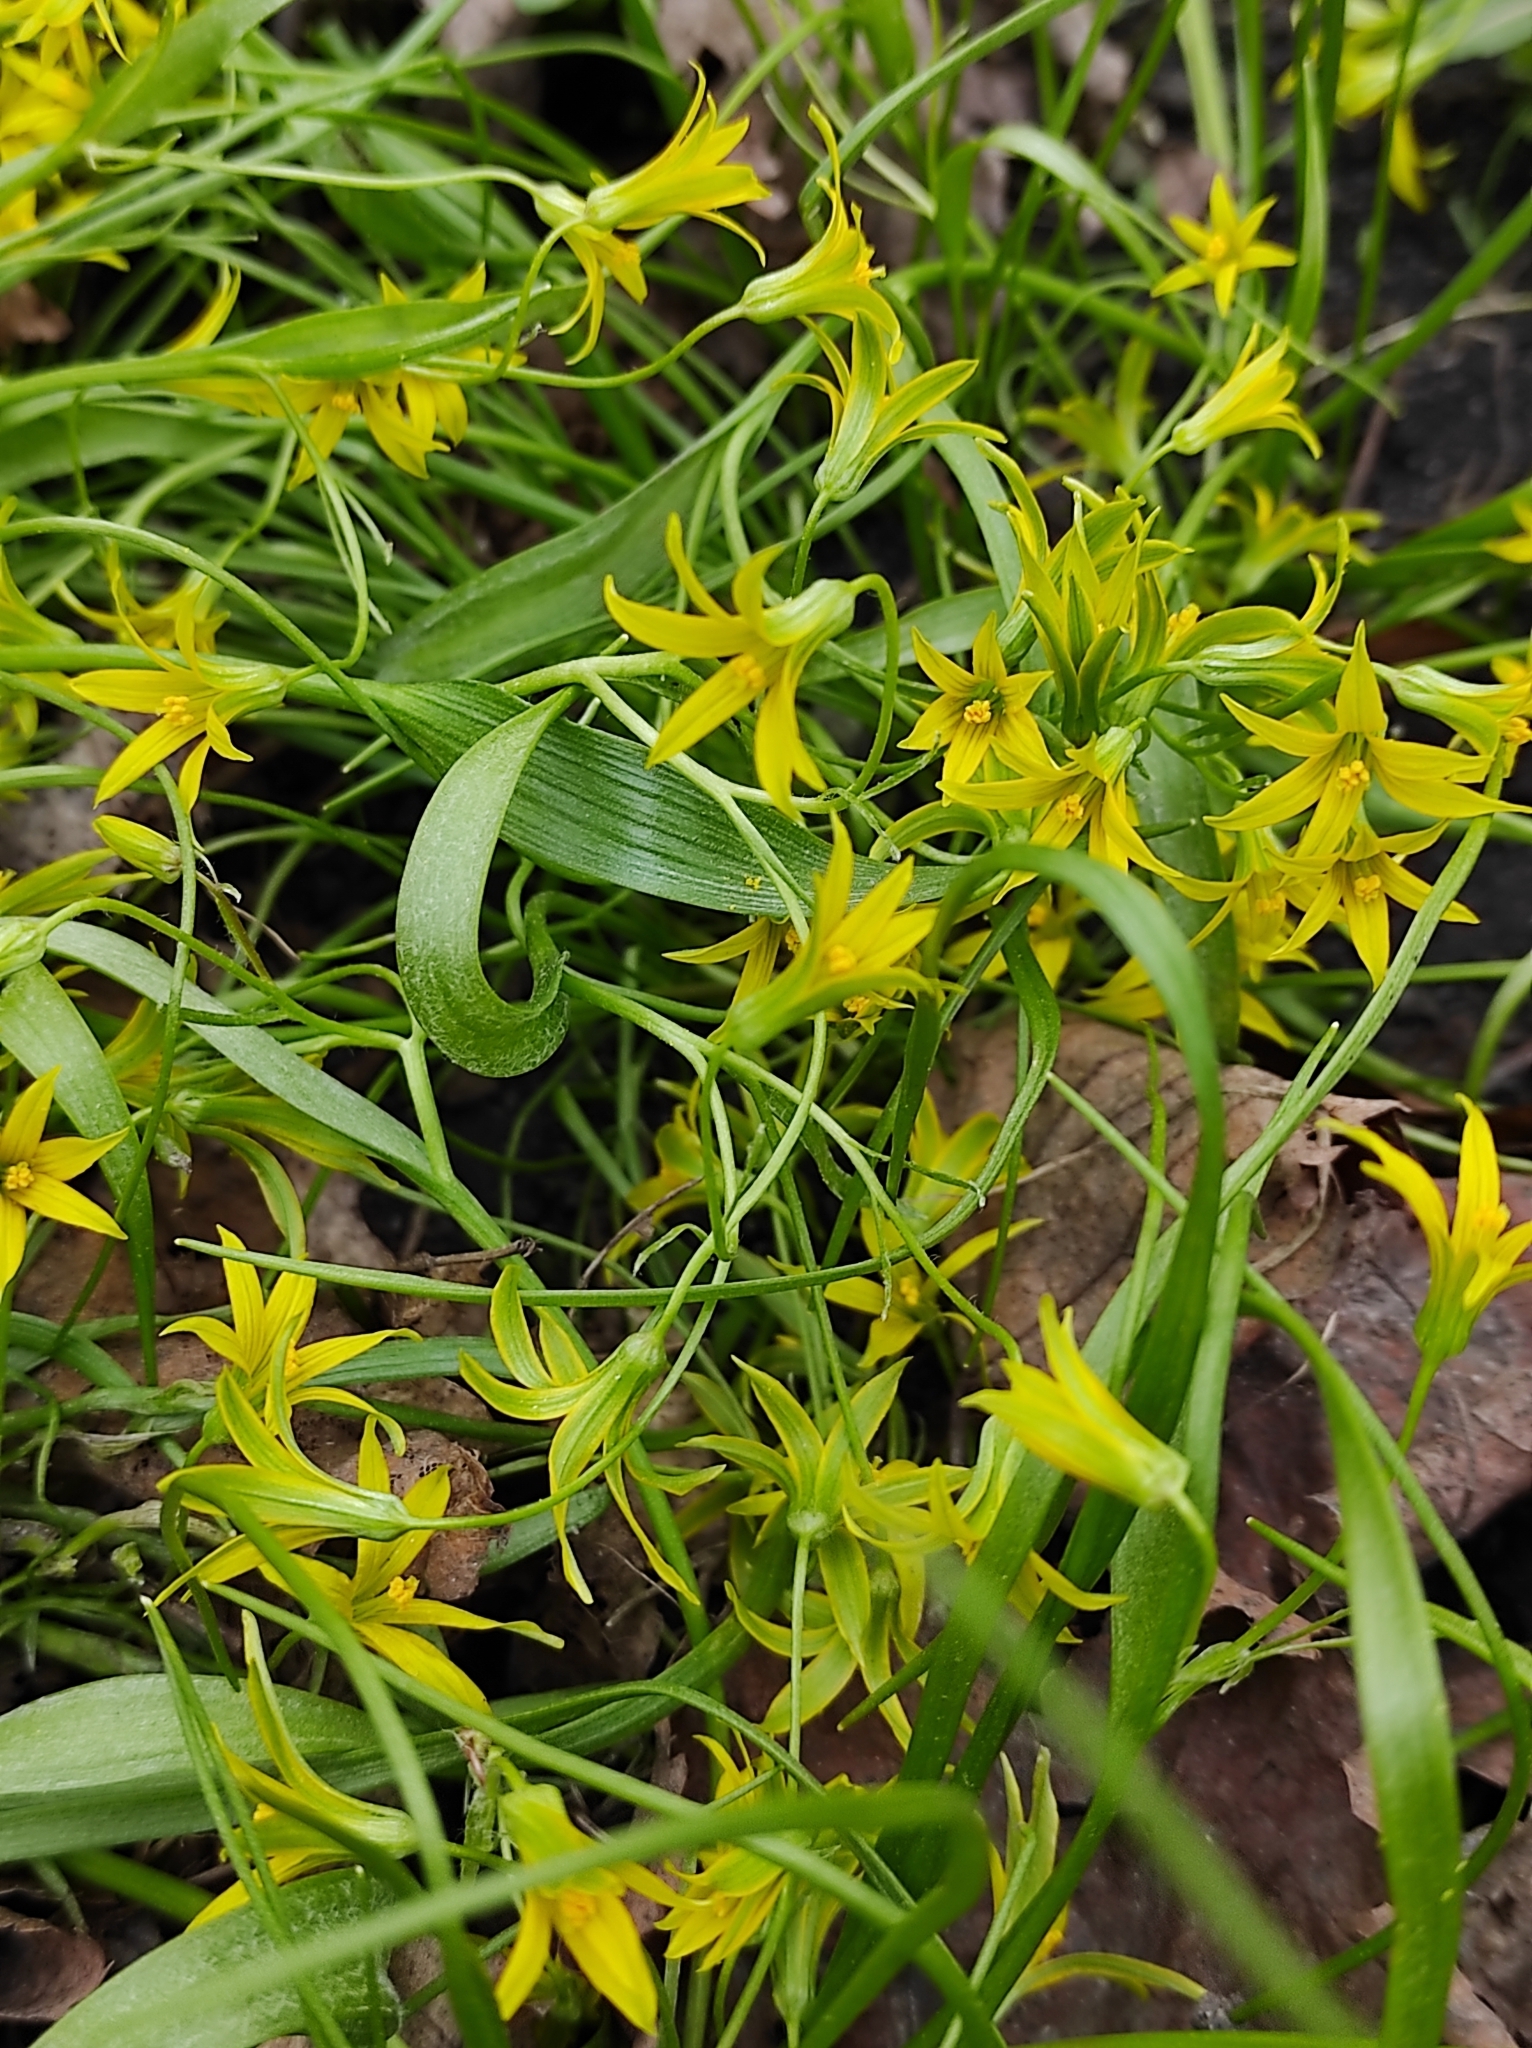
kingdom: Plantae
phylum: Tracheophyta
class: Liliopsida
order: Liliales
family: Liliaceae
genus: Gagea
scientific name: Gagea minima
